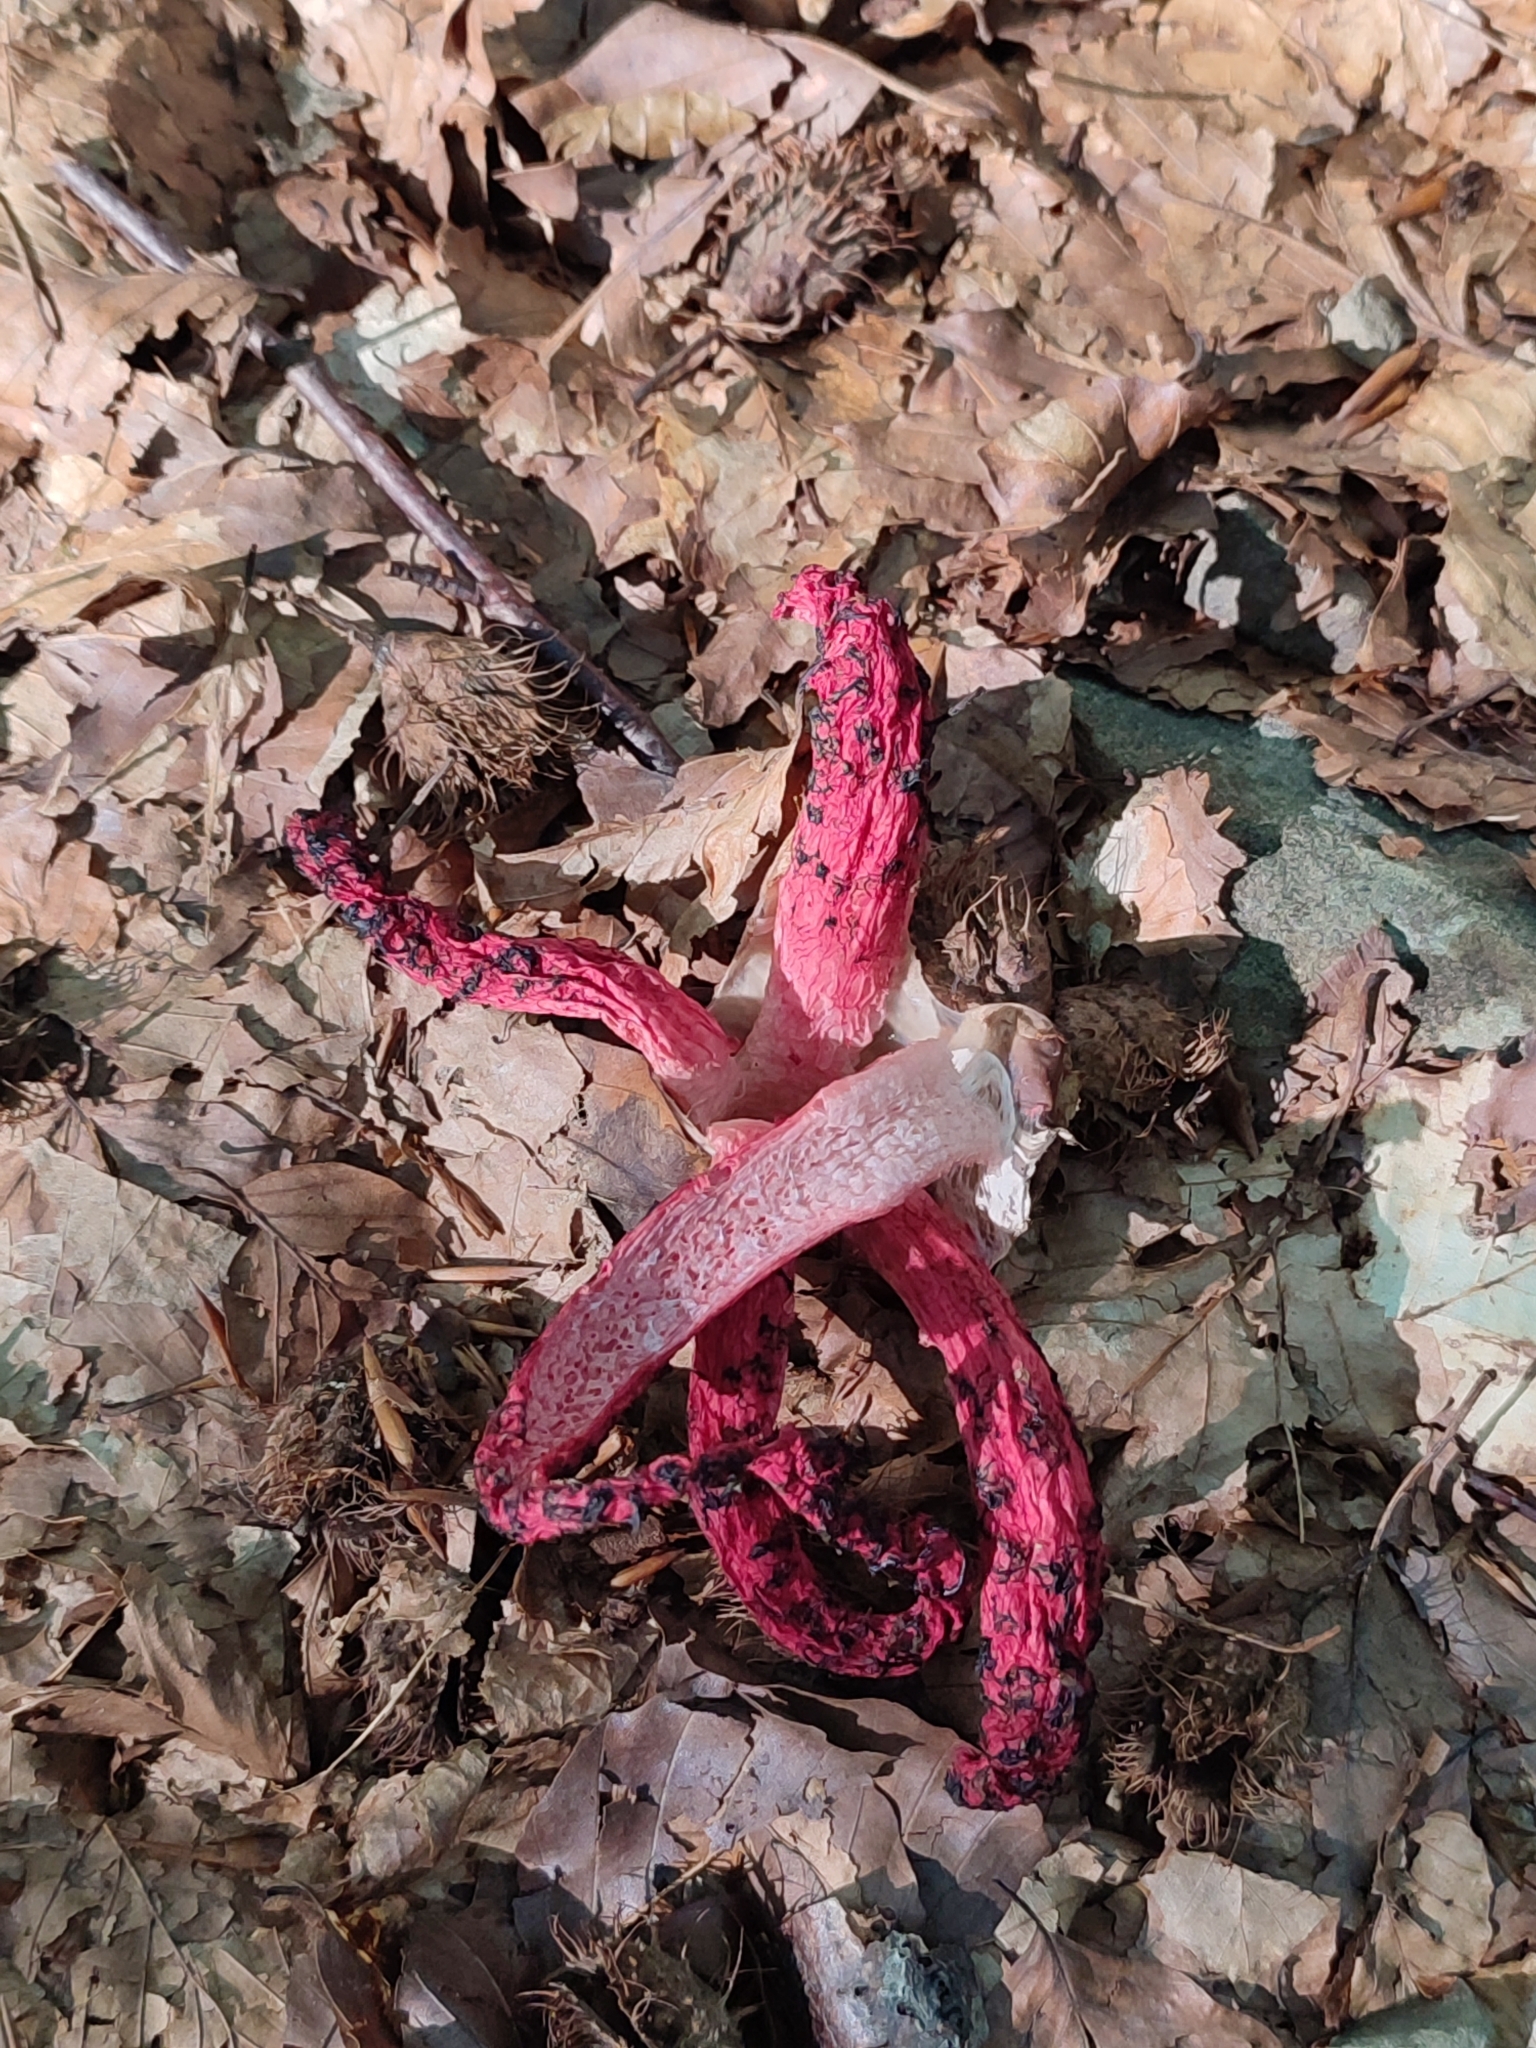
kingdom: Fungi
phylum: Basidiomycota
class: Agaricomycetes
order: Phallales
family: Phallaceae
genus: Clathrus
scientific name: Clathrus archeri
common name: Devil's fingers
